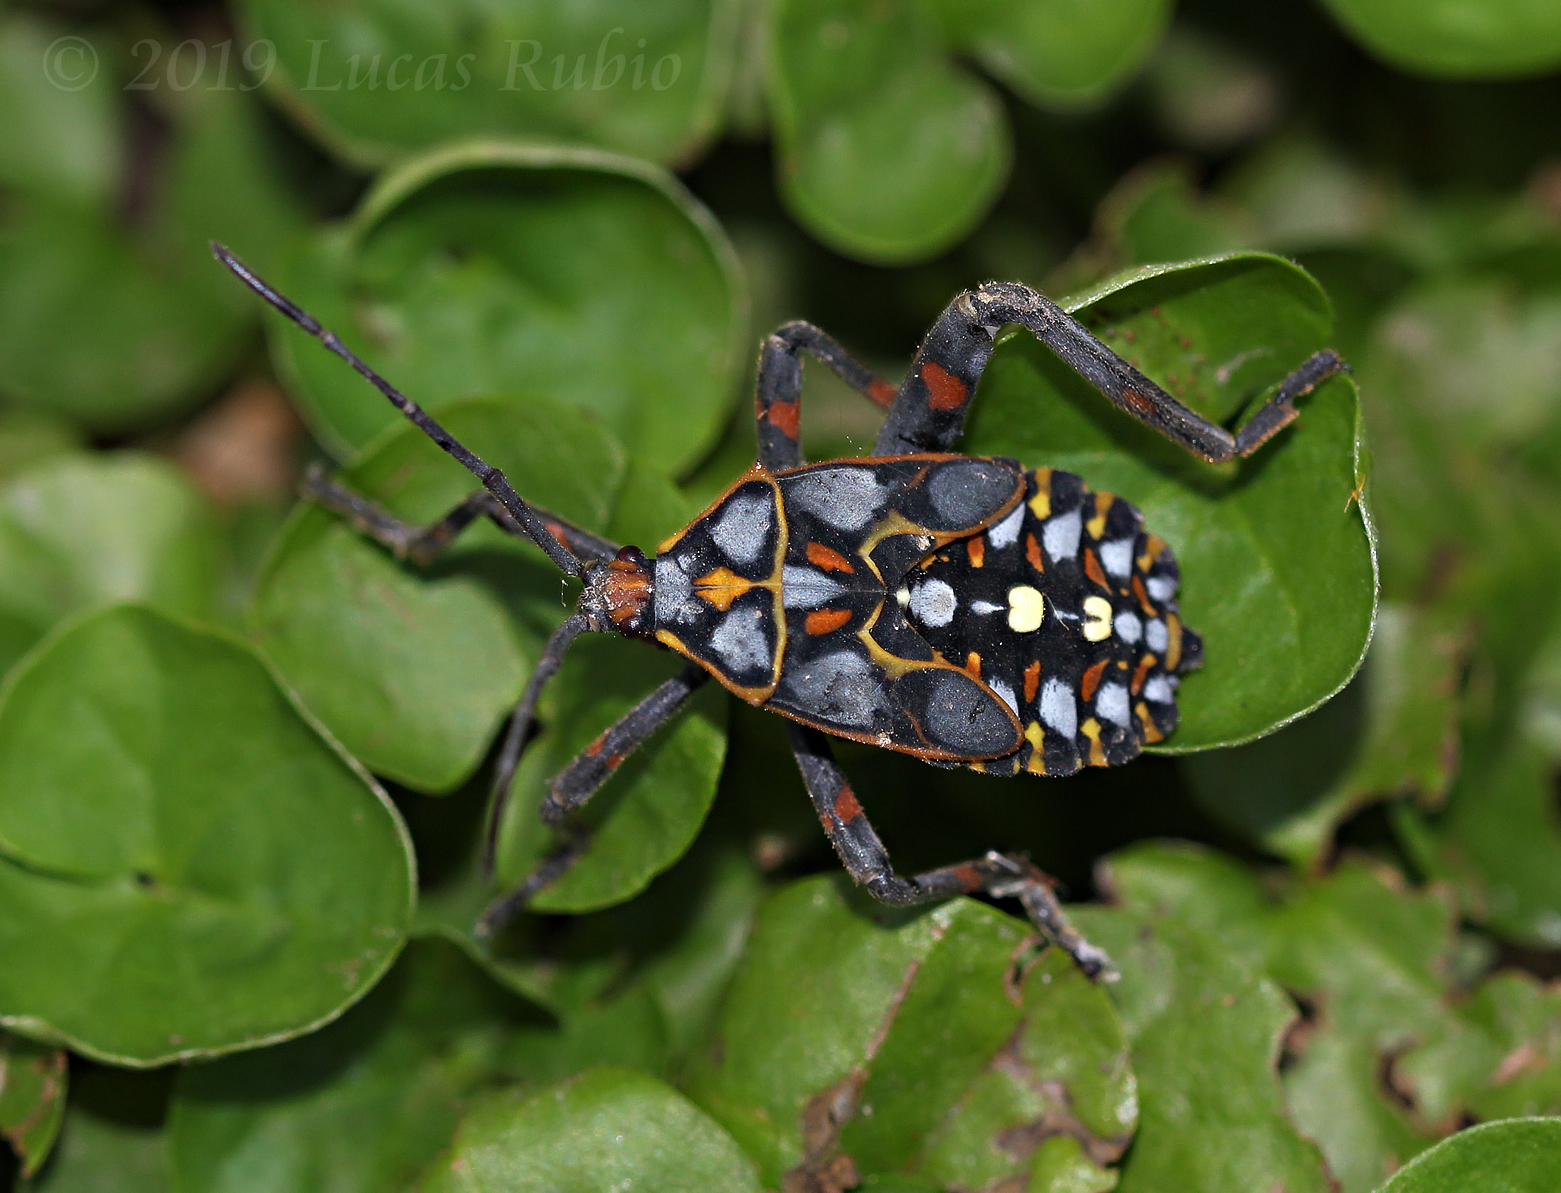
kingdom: Animalia
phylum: Arthropoda
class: Insecta
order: Hemiptera
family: Coreidae
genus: Pachylis
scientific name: Pachylis argentinus
